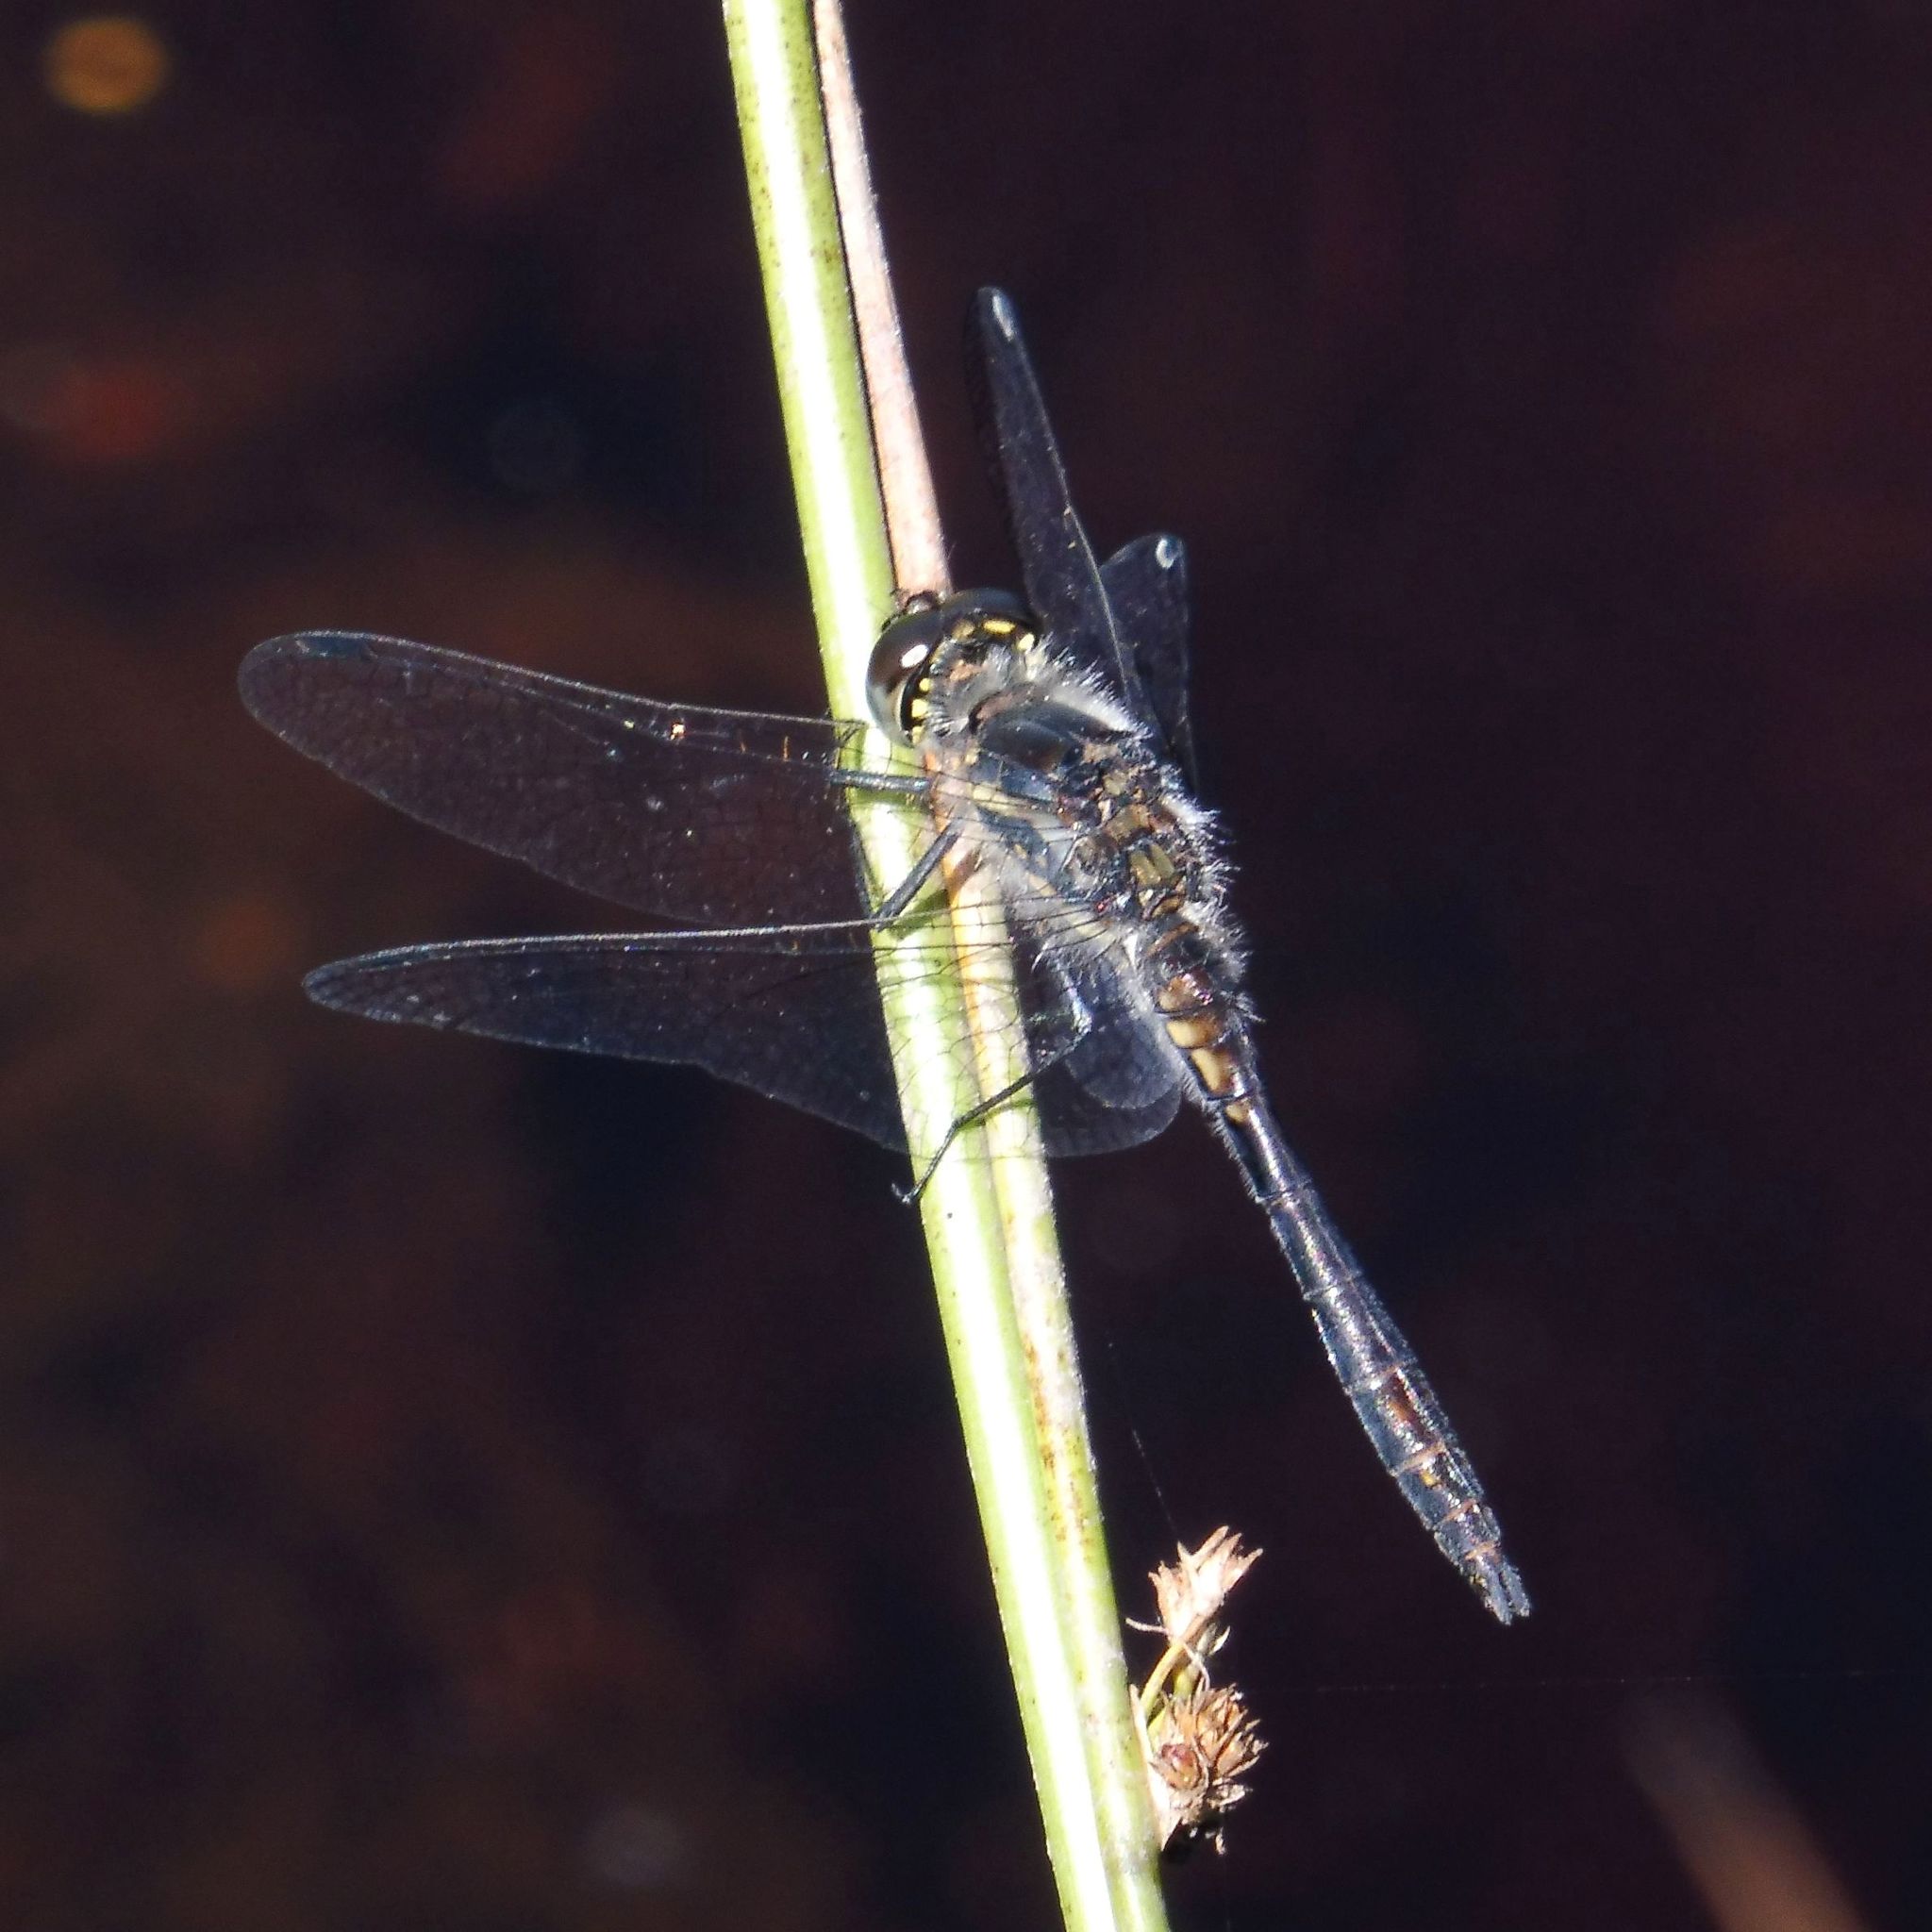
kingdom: Animalia
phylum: Arthropoda
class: Insecta
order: Odonata
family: Libellulidae
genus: Sympetrum
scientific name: Sympetrum danae
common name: Black darter
